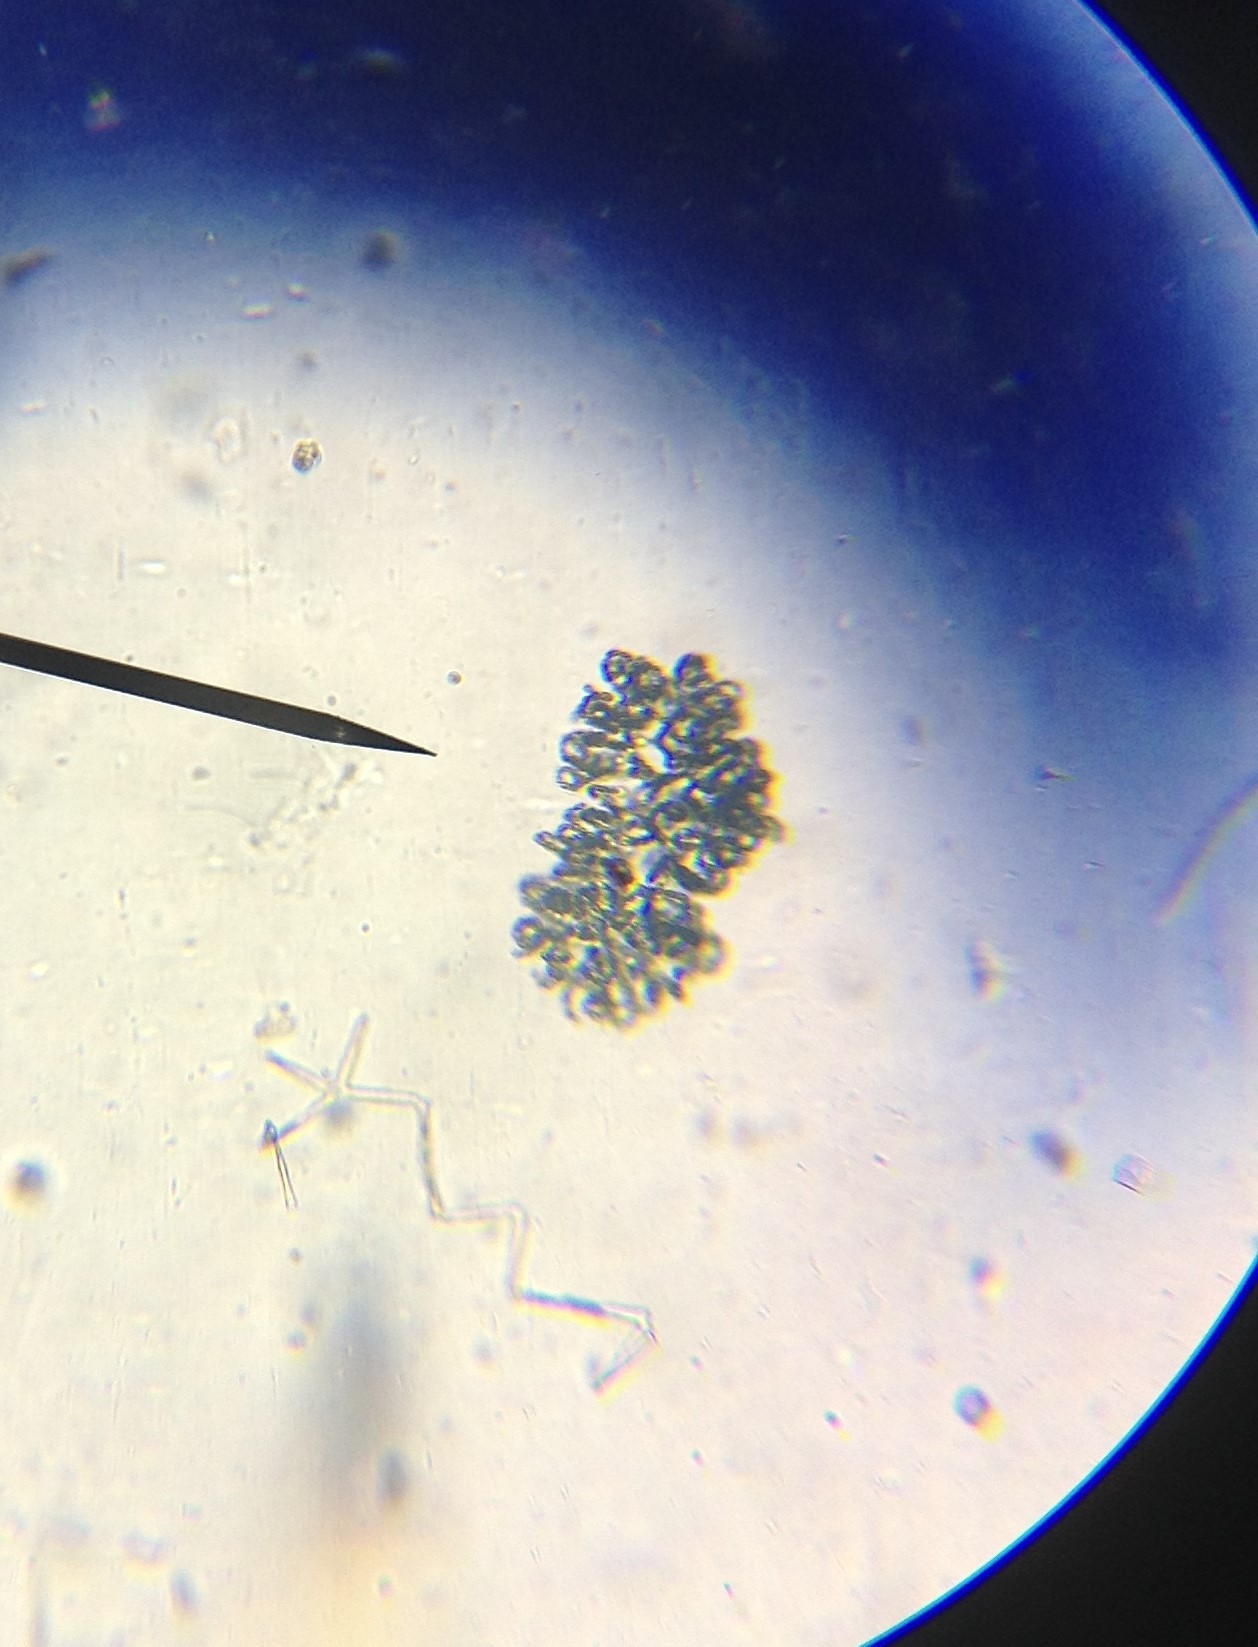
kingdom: Bacteria
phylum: Cyanobacteria
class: Cyanobacteriia
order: Cyanobacteriales
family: Aphanizomenonaceae
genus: Dolichospermum
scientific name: Dolichospermum
